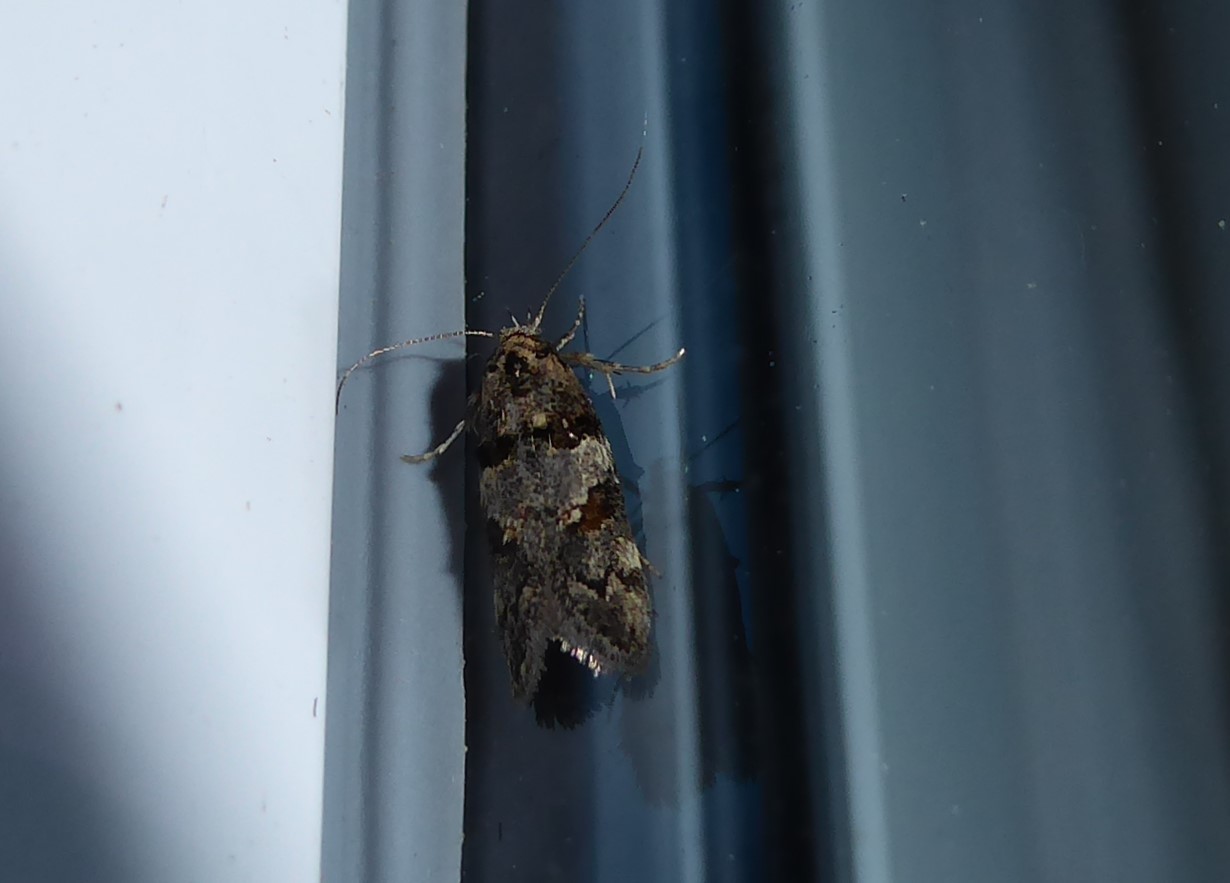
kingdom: Animalia
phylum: Arthropoda
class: Insecta
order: Lepidoptera
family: Oecophoridae
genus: Trachypepla
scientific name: Trachypepla contritella
